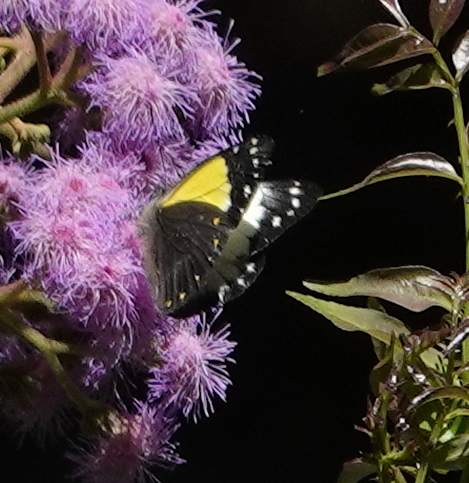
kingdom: Animalia
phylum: Arthropoda
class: Insecta
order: Lepidoptera
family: Pieridae
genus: Delias
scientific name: Delias momea
